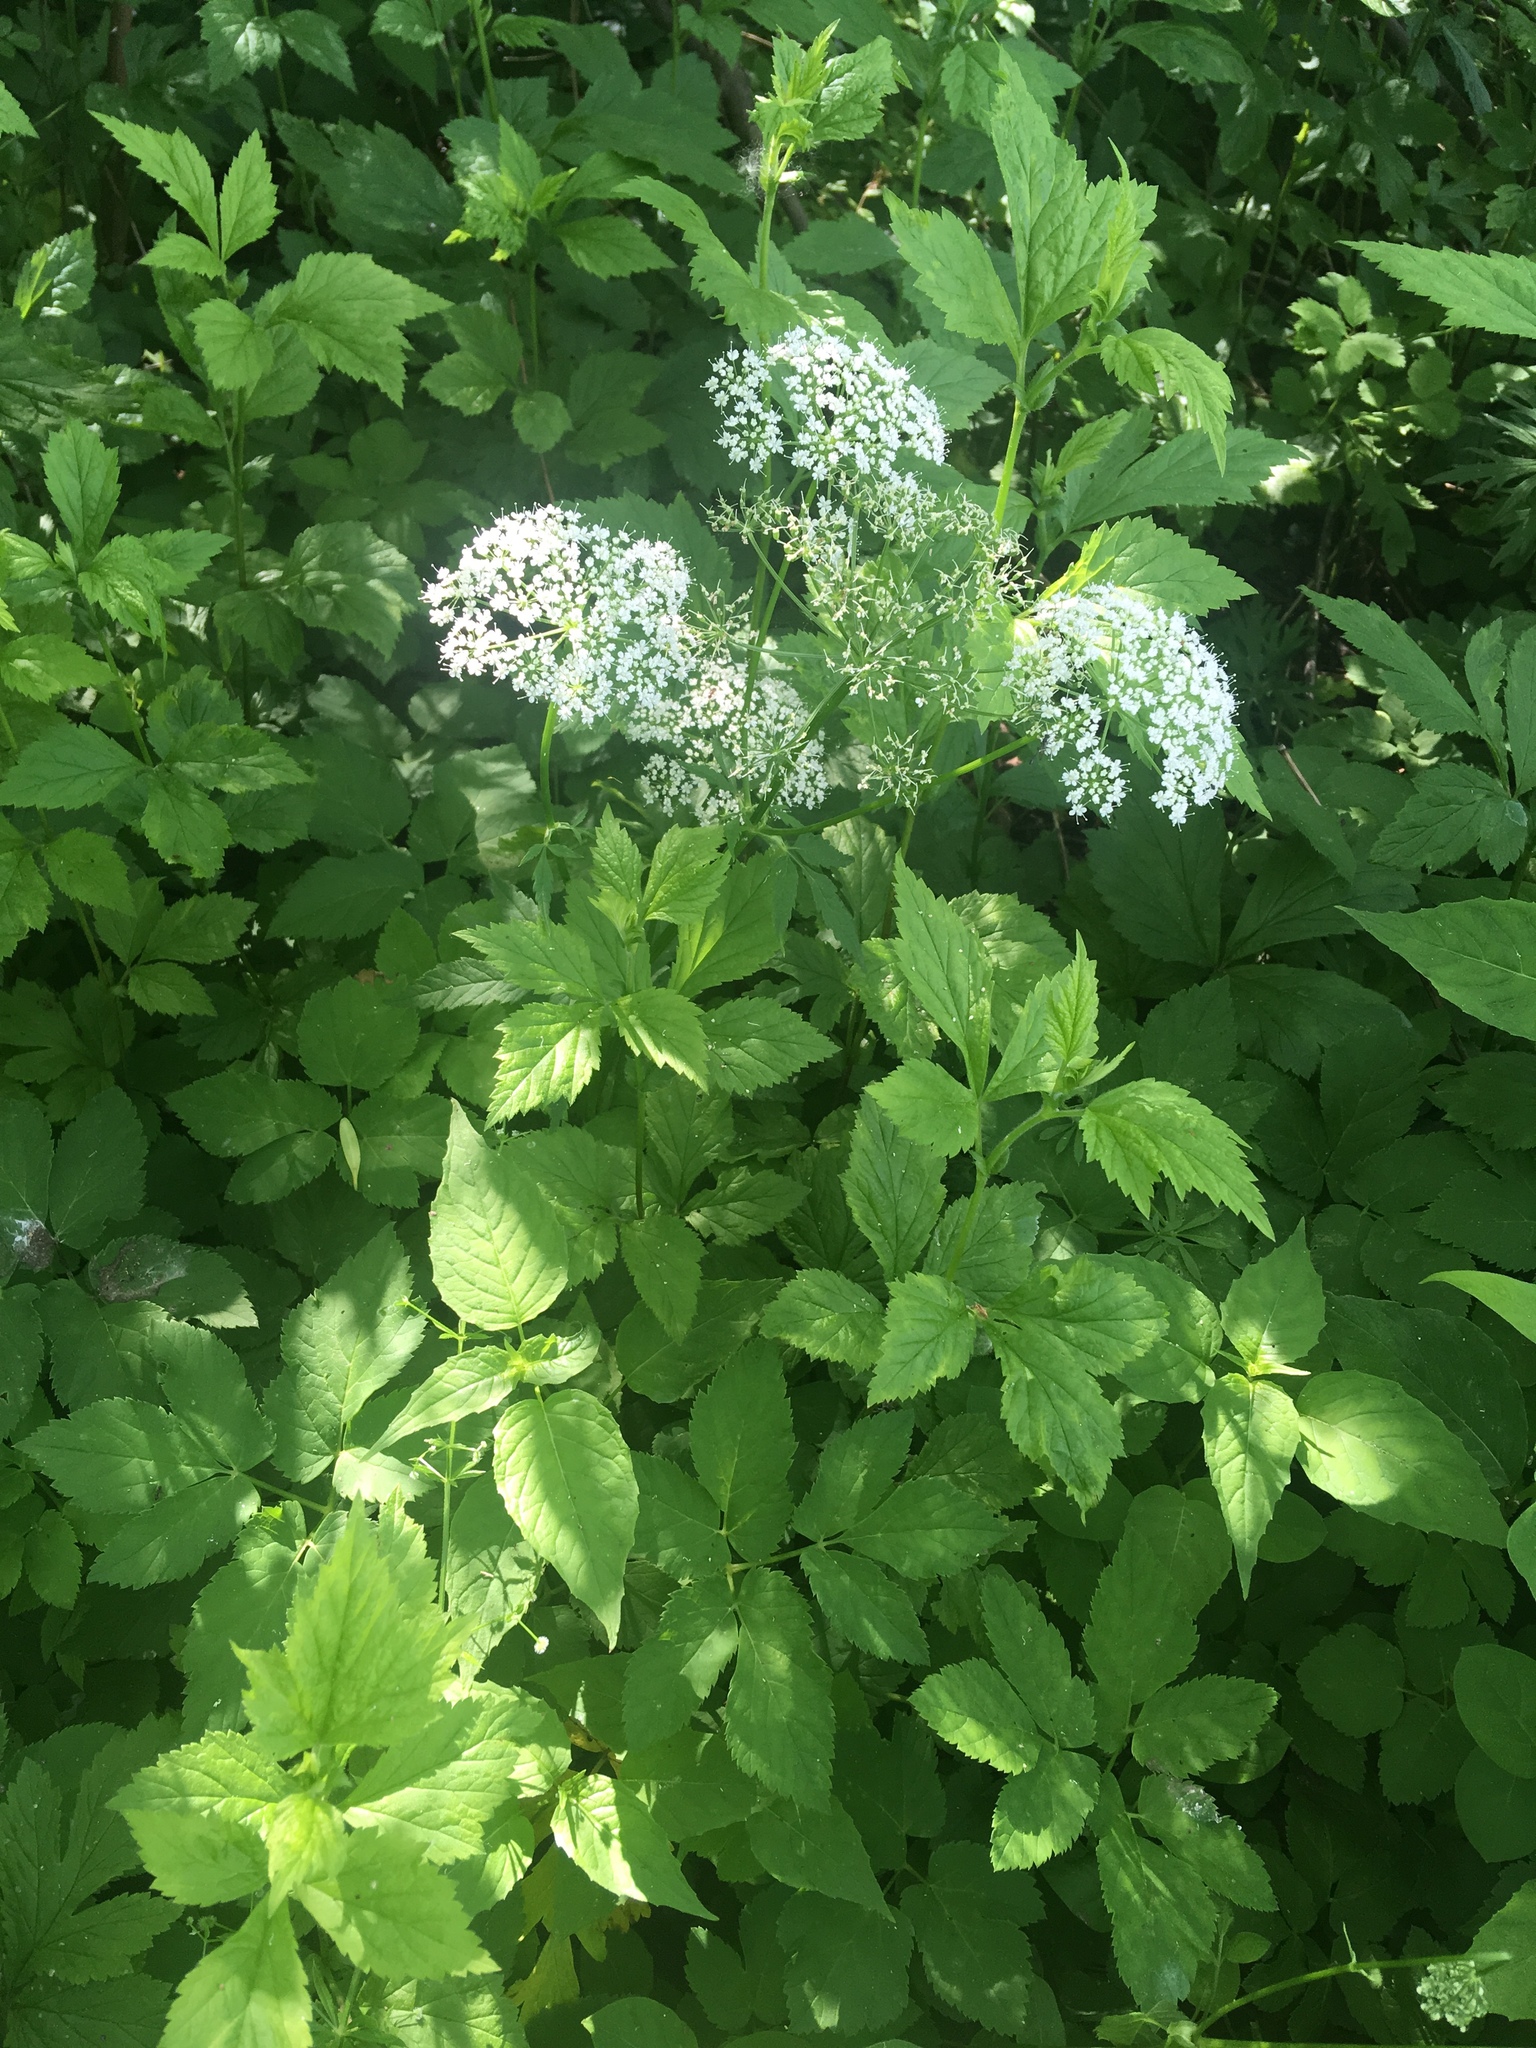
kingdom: Plantae
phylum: Tracheophyta
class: Magnoliopsida
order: Apiales
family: Apiaceae
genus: Aegopodium
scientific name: Aegopodium podagraria
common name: Ground-elder
